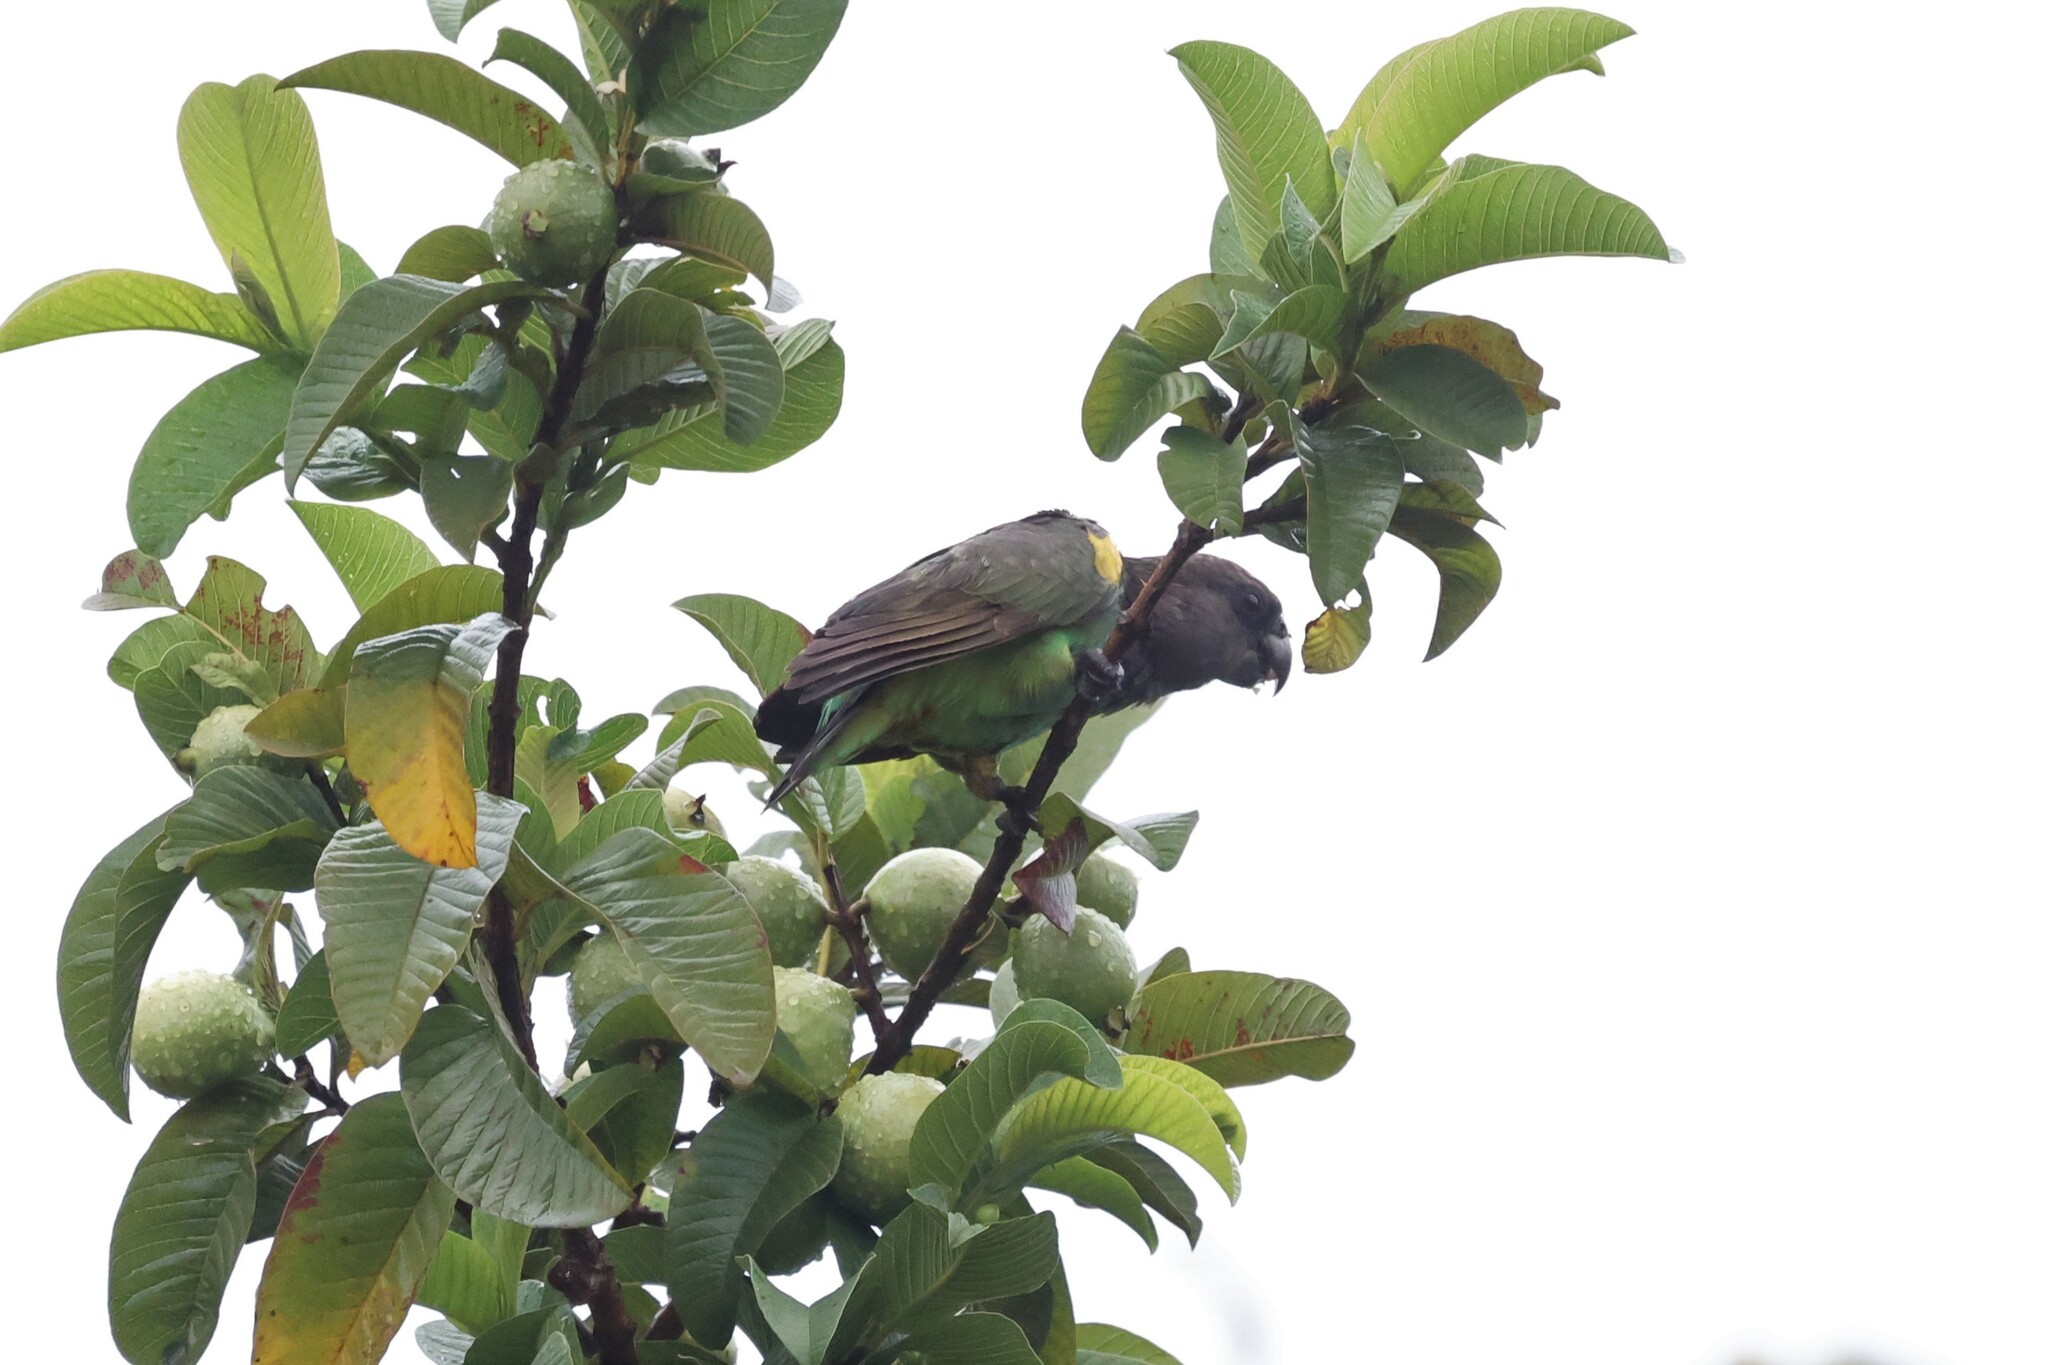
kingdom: Animalia
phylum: Chordata
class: Aves
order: Psittaciformes
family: Psittacidae
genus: Poicephalus
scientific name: Poicephalus meyeri
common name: Meyer's parrot
